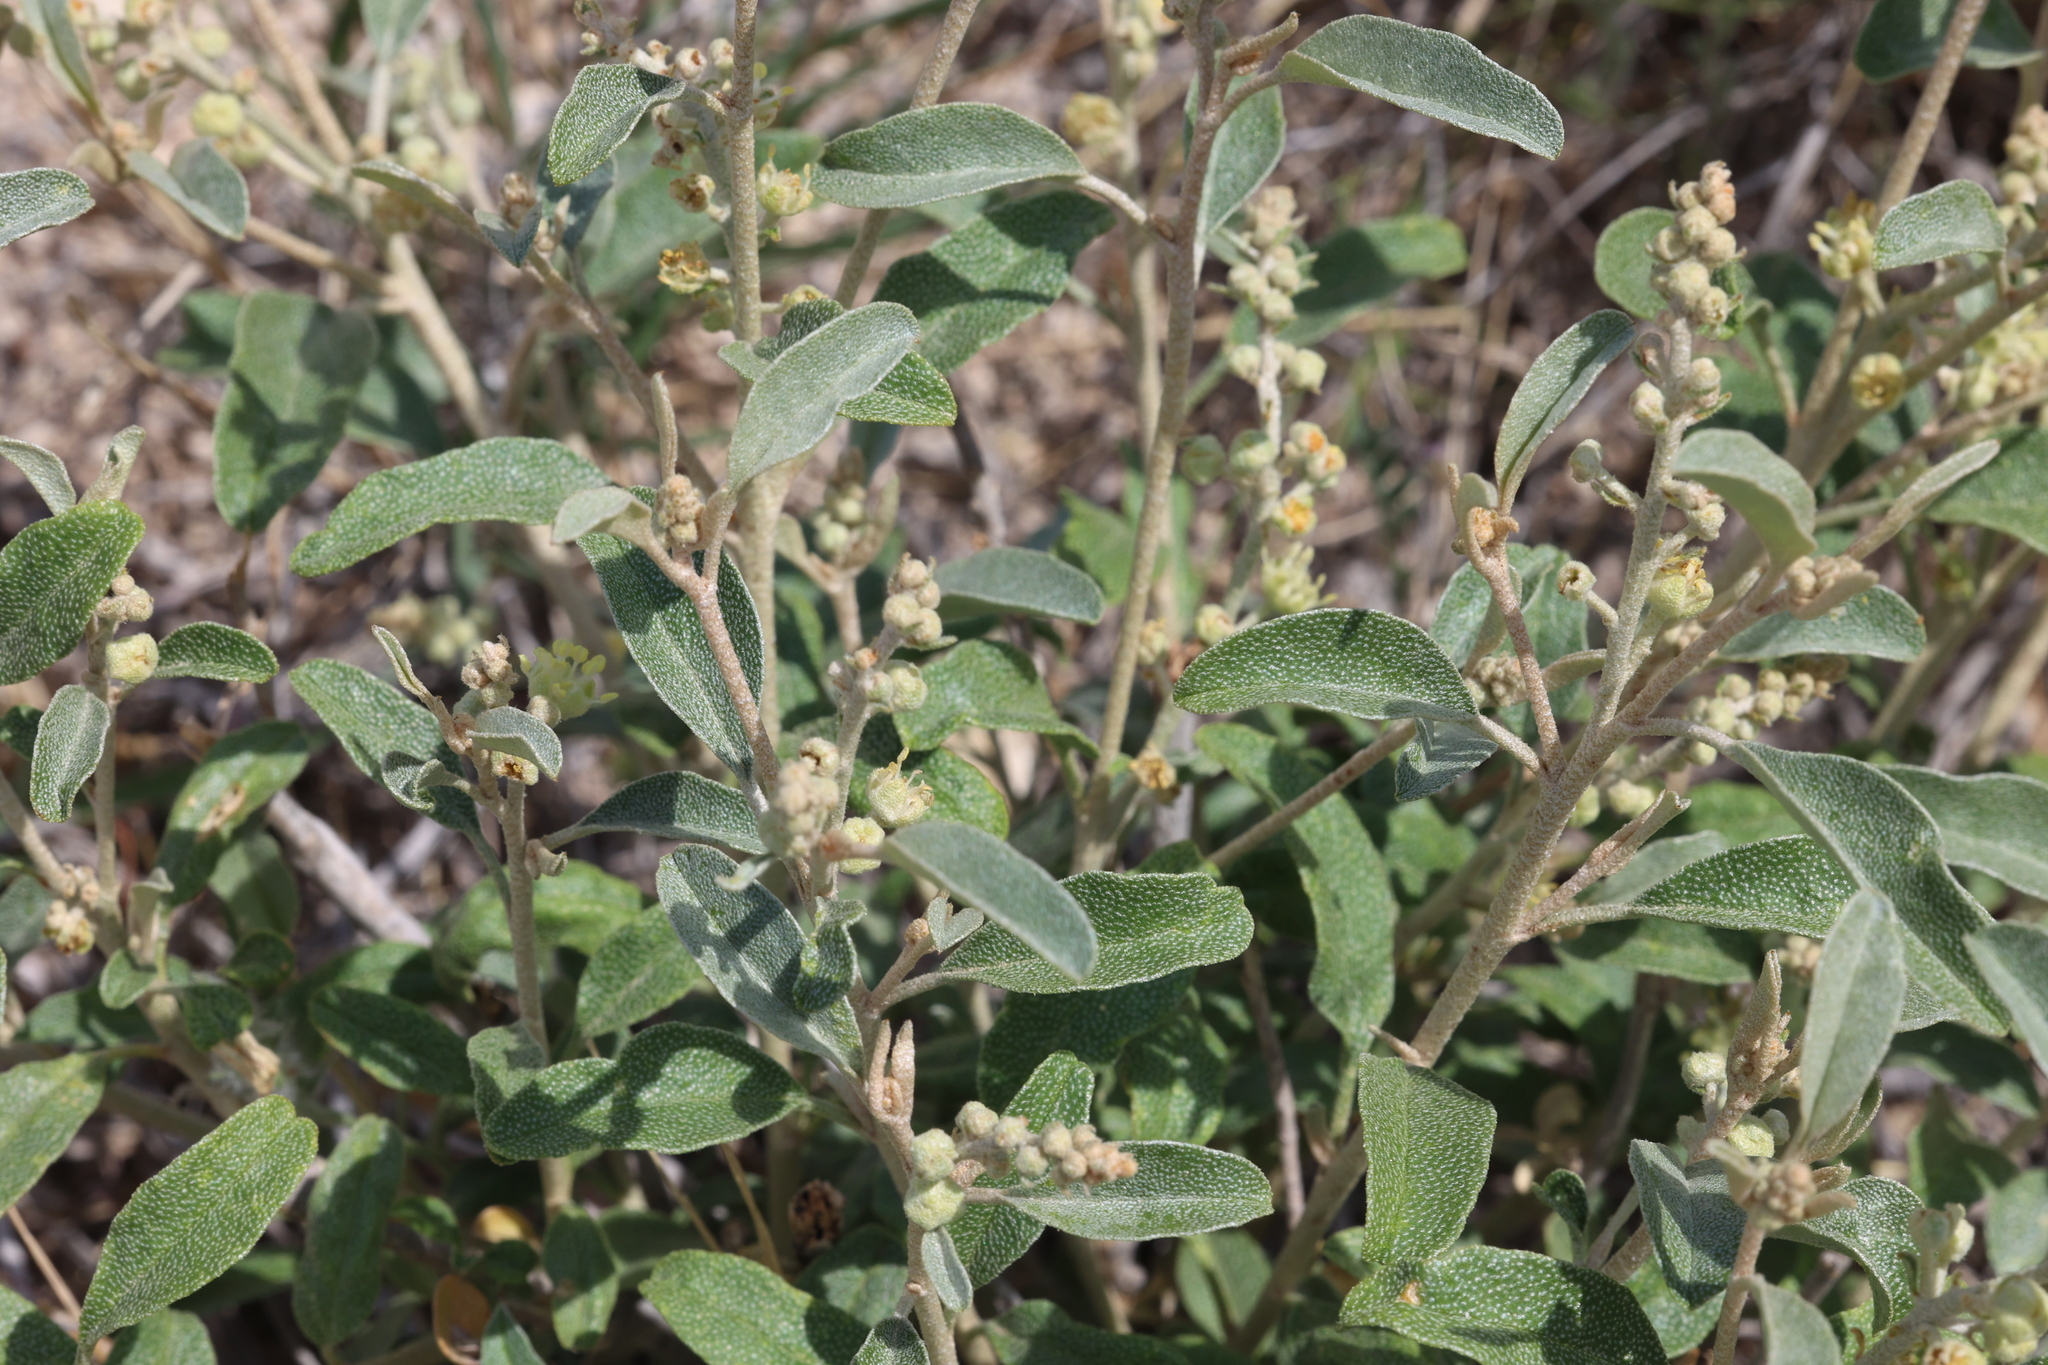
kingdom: Plantae
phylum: Tracheophyta
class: Magnoliopsida
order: Malpighiales
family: Euphorbiaceae
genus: Croton
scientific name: Croton dioicus
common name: Grassland croton
